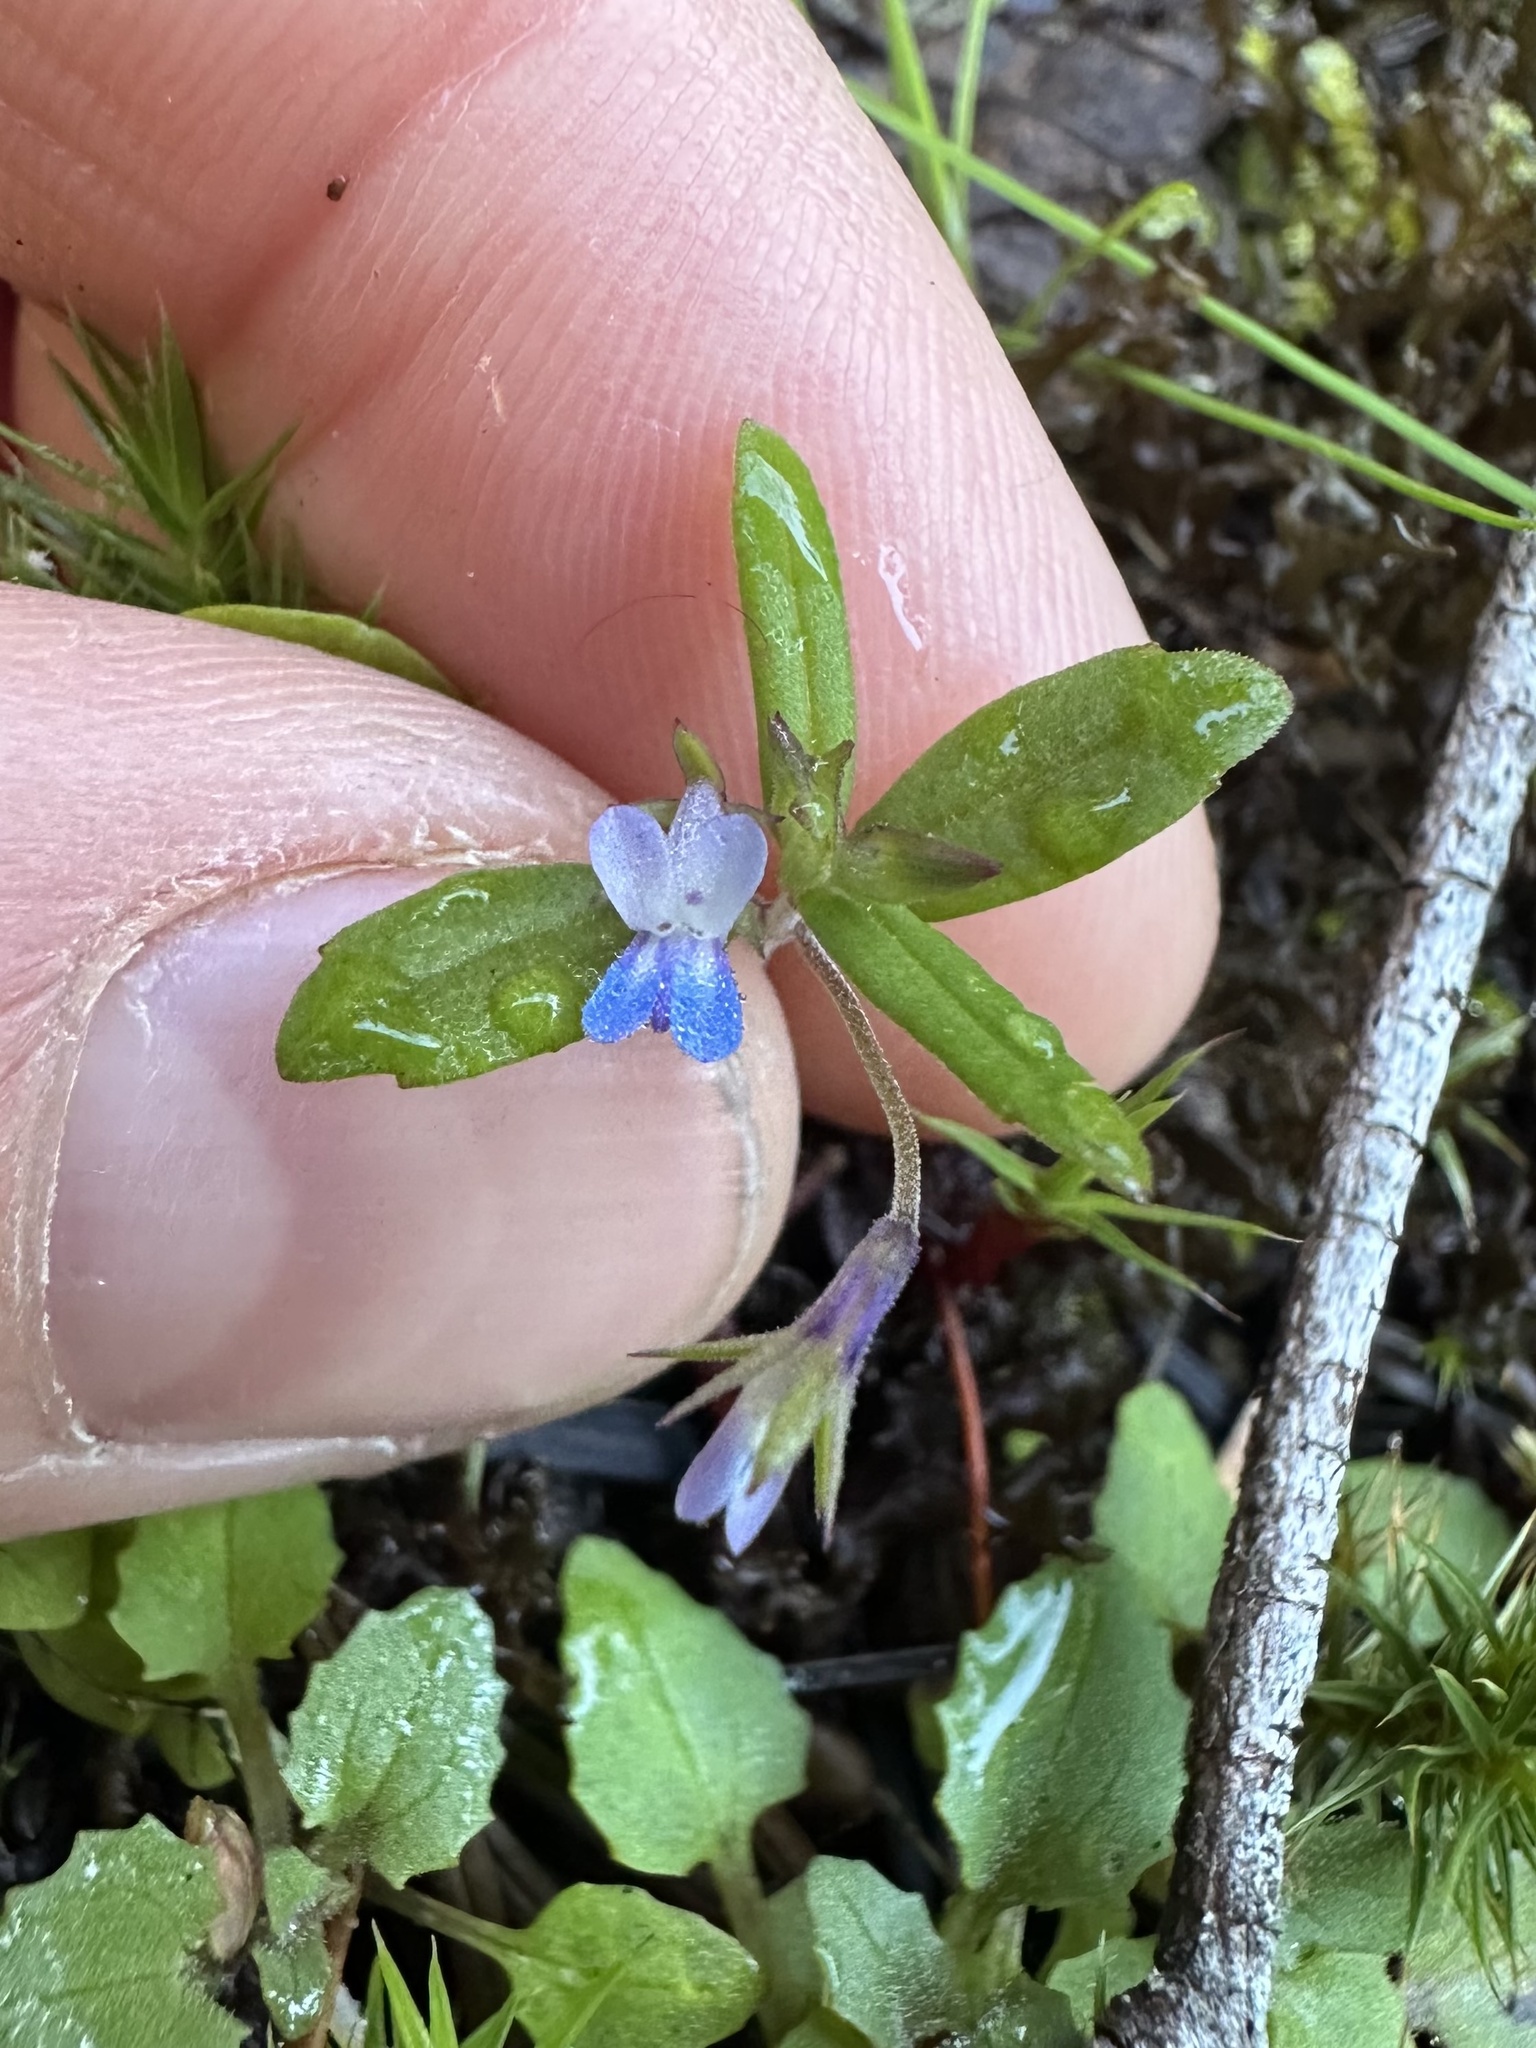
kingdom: Plantae
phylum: Tracheophyta
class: Magnoliopsida
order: Lamiales
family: Plantaginaceae
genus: Collinsia
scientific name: Collinsia parviflora
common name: Blue-lips
